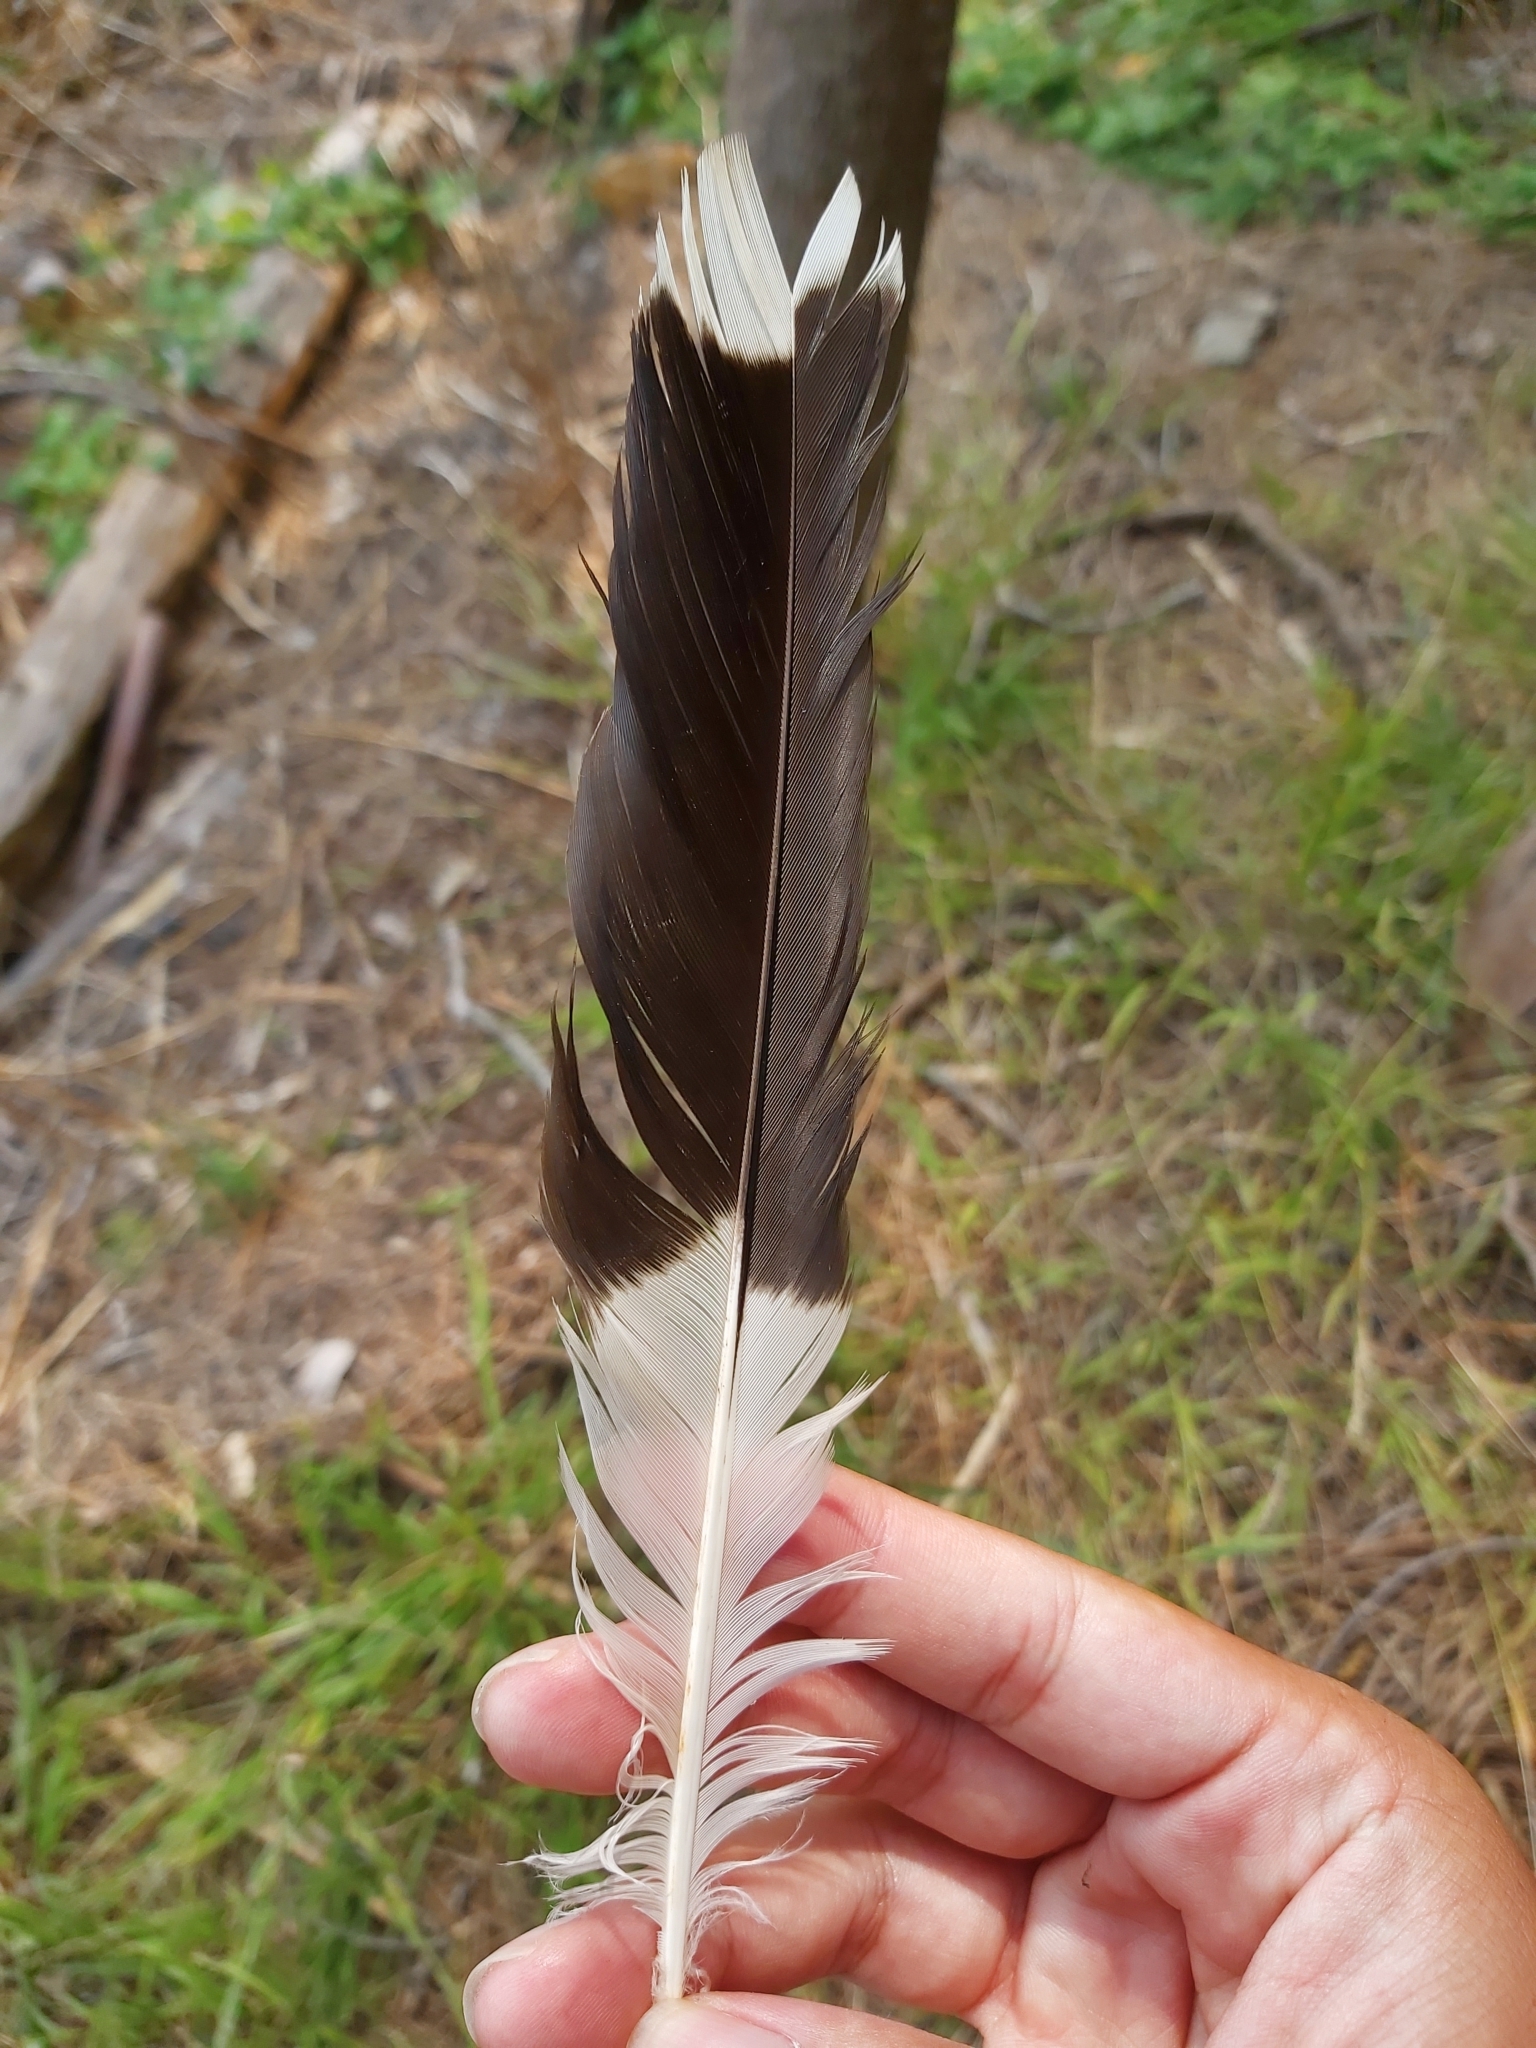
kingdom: Animalia
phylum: Chordata
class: Aves
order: Passeriformes
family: Cracticidae
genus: Strepera
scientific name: Strepera graculina
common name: Pied currawong
